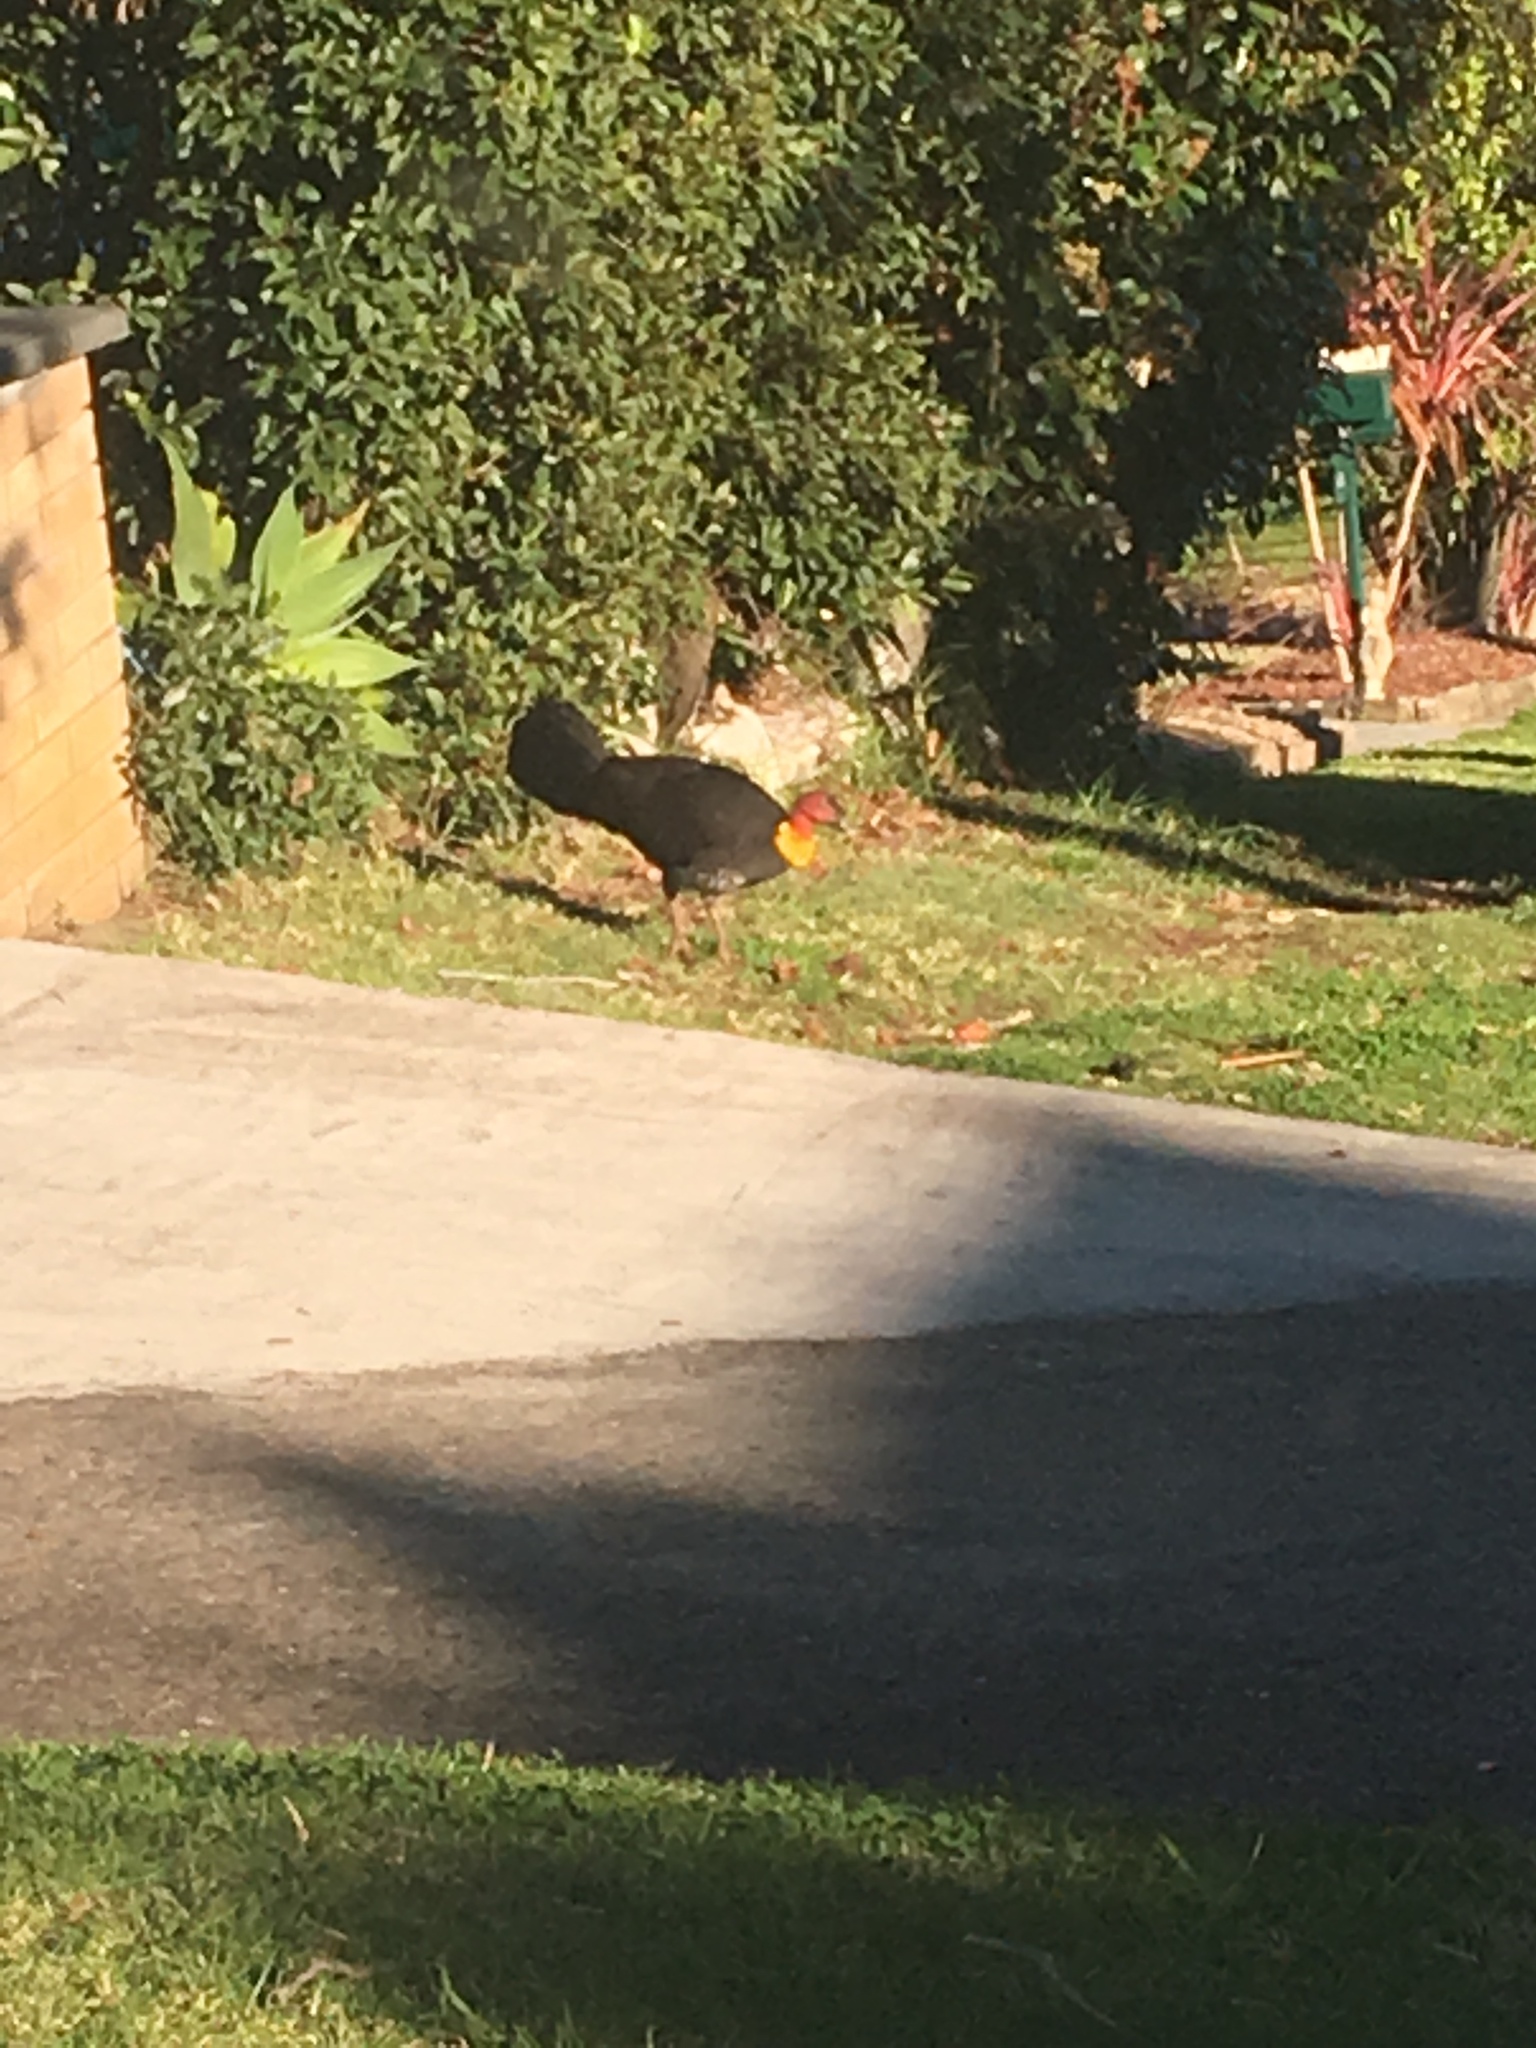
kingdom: Animalia
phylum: Chordata
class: Aves
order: Galliformes
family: Megapodiidae
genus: Alectura
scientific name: Alectura lathami
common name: Australian brushturkey
